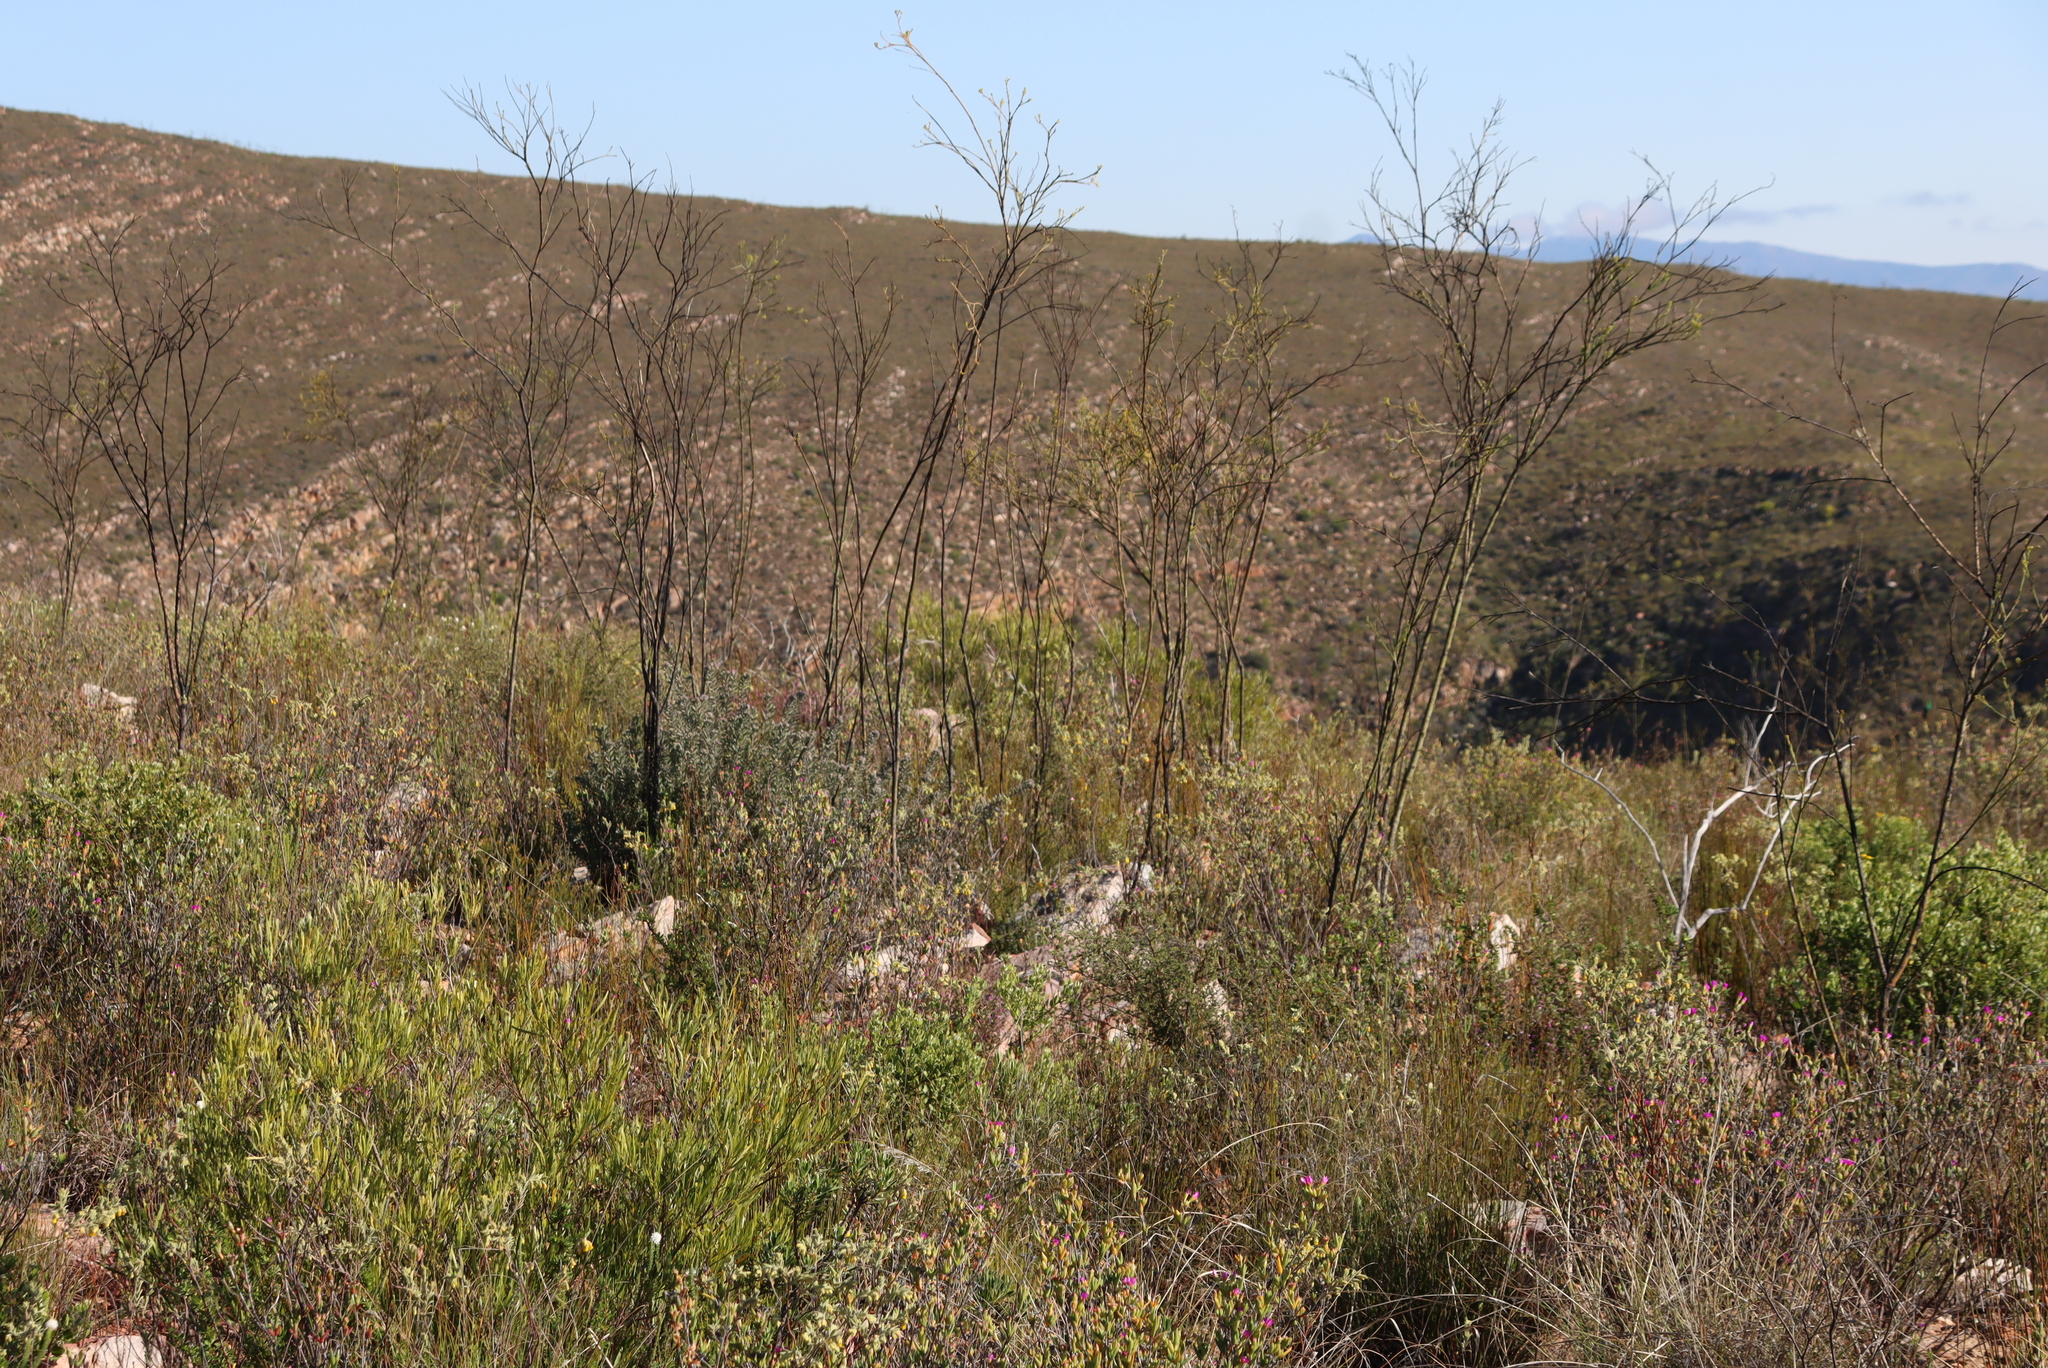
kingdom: Plantae
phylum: Tracheophyta
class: Magnoliopsida
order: Santalales
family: Thesiaceae
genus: Thesium
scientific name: Thesium strictum
